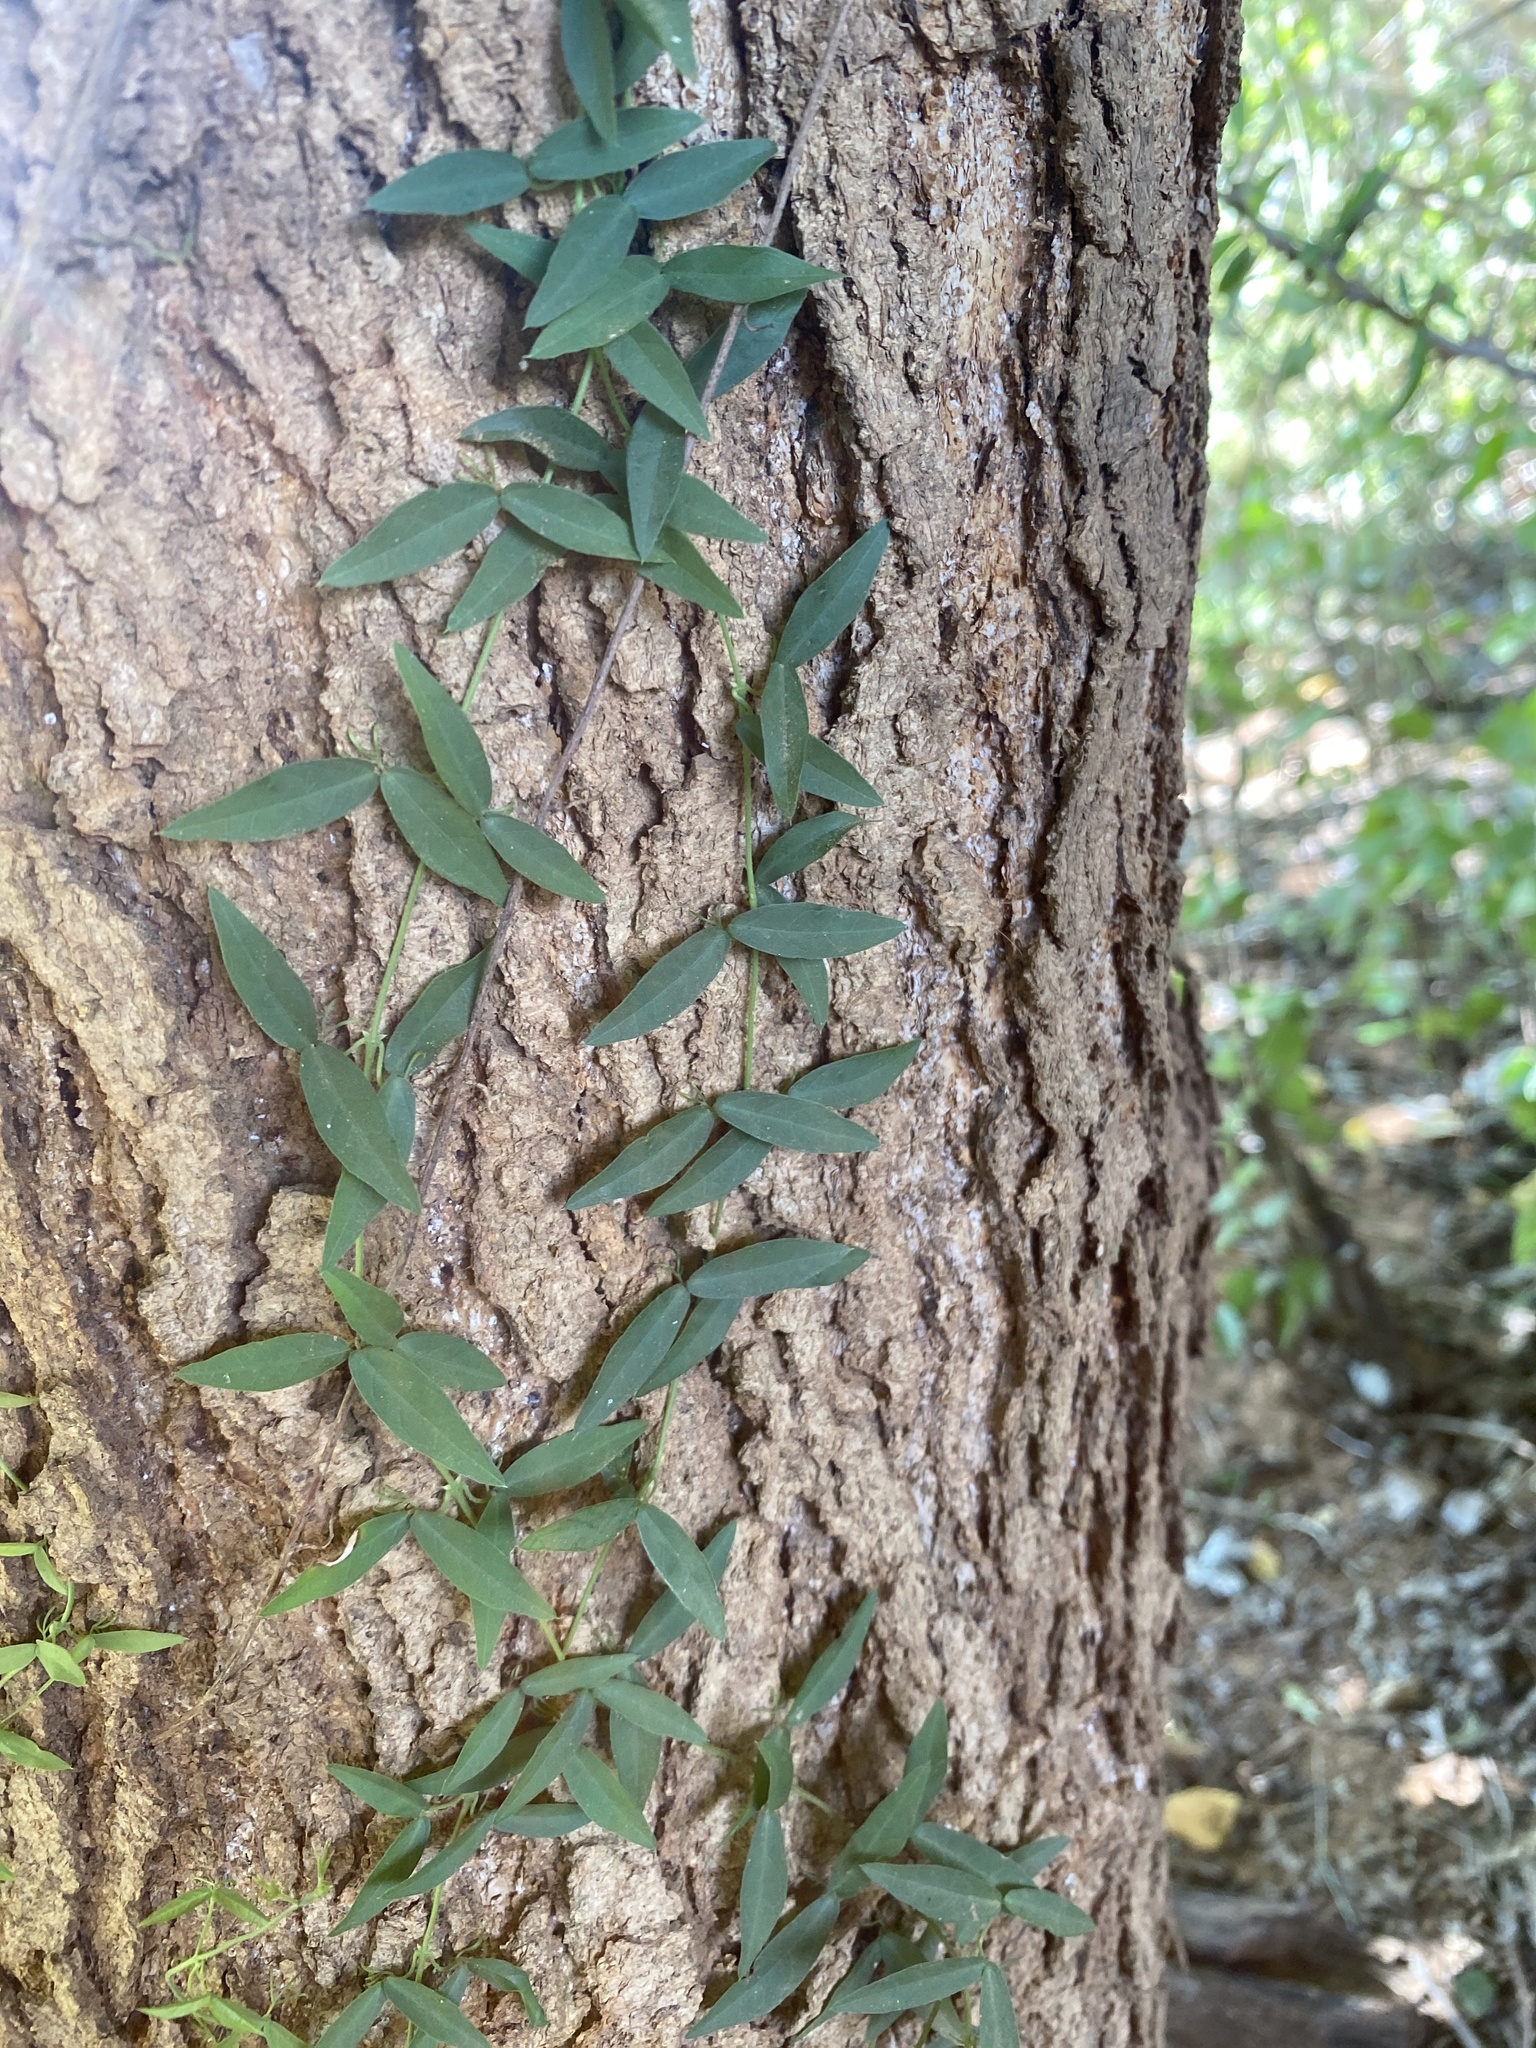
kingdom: Plantae
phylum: Tracheophyta
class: Magnoliopsida
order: Lamiales
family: Bignoniaceae
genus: Dolichandra
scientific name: Dolichandra unguis-cati
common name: Catclaw vine
